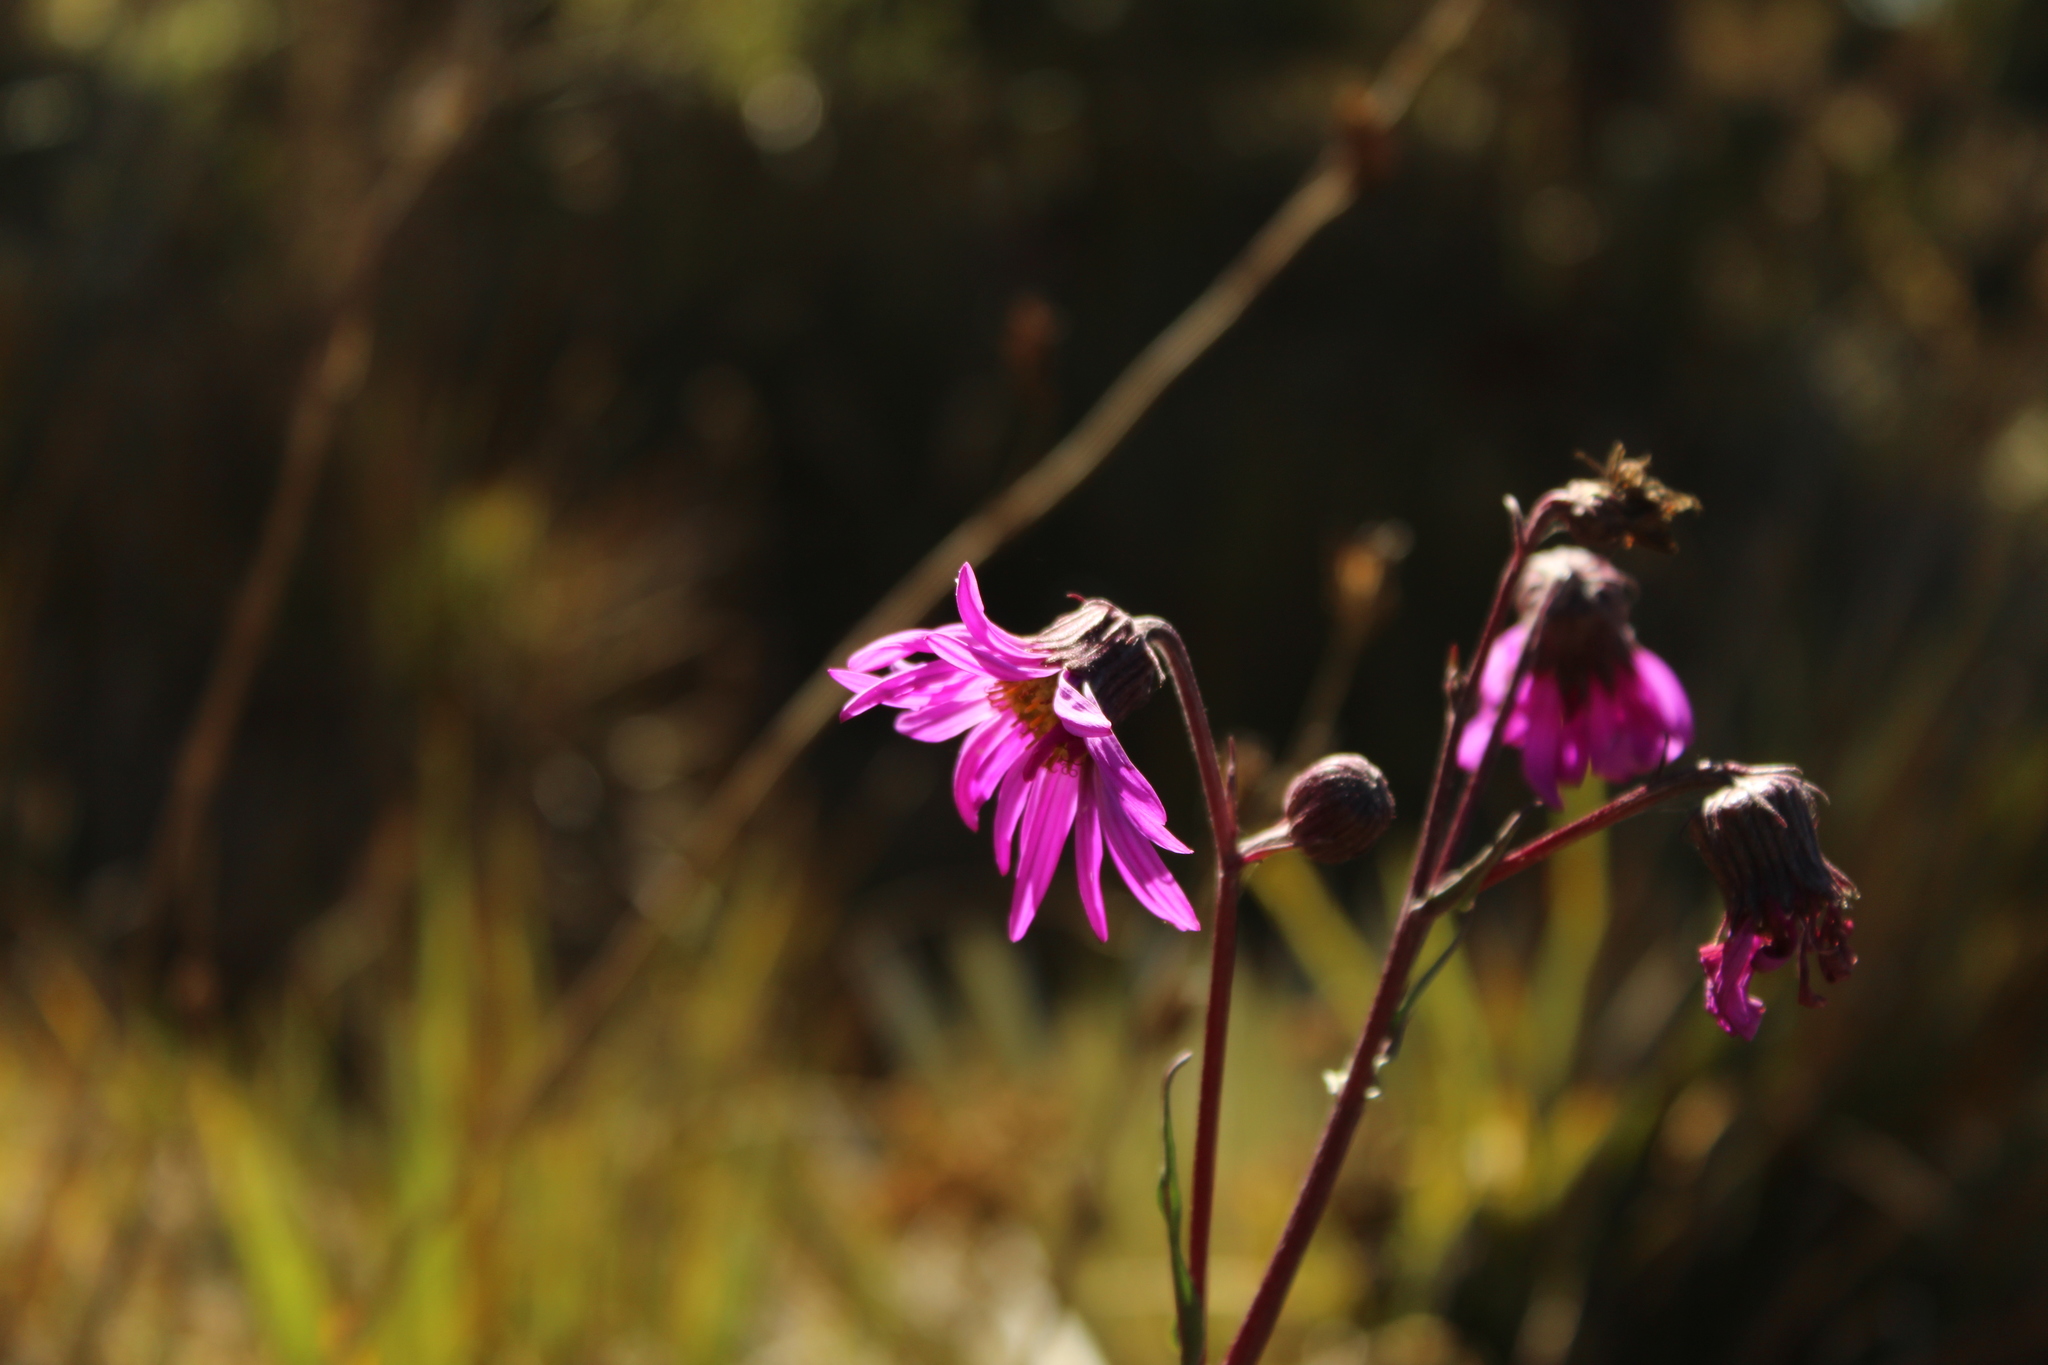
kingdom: Plantae
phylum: Tracheophyta
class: Magnoliopsida
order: Asterales
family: Asteraceae
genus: Senecio
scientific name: Senecio formosus
